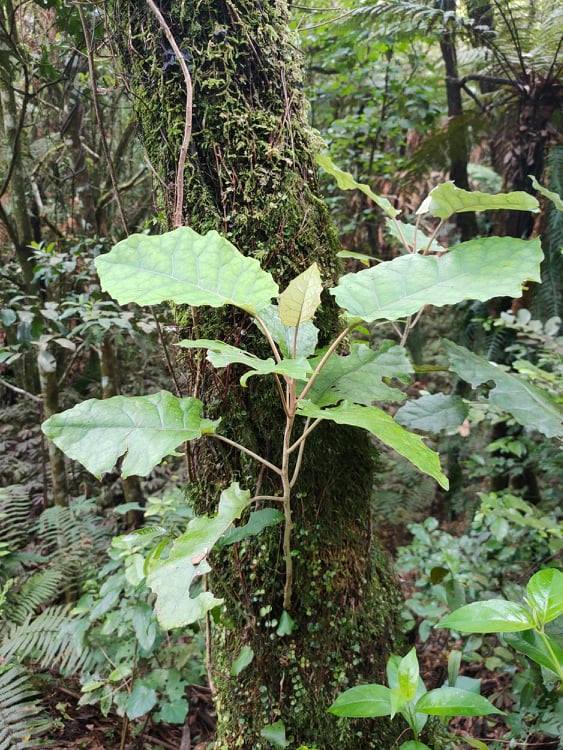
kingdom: Plantae
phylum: Tracheophyta
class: Magnoliopsida
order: Asterales
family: Asteraceae
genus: Brachyglottis
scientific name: Brachyglottis repanda
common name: Hedge ragwort
